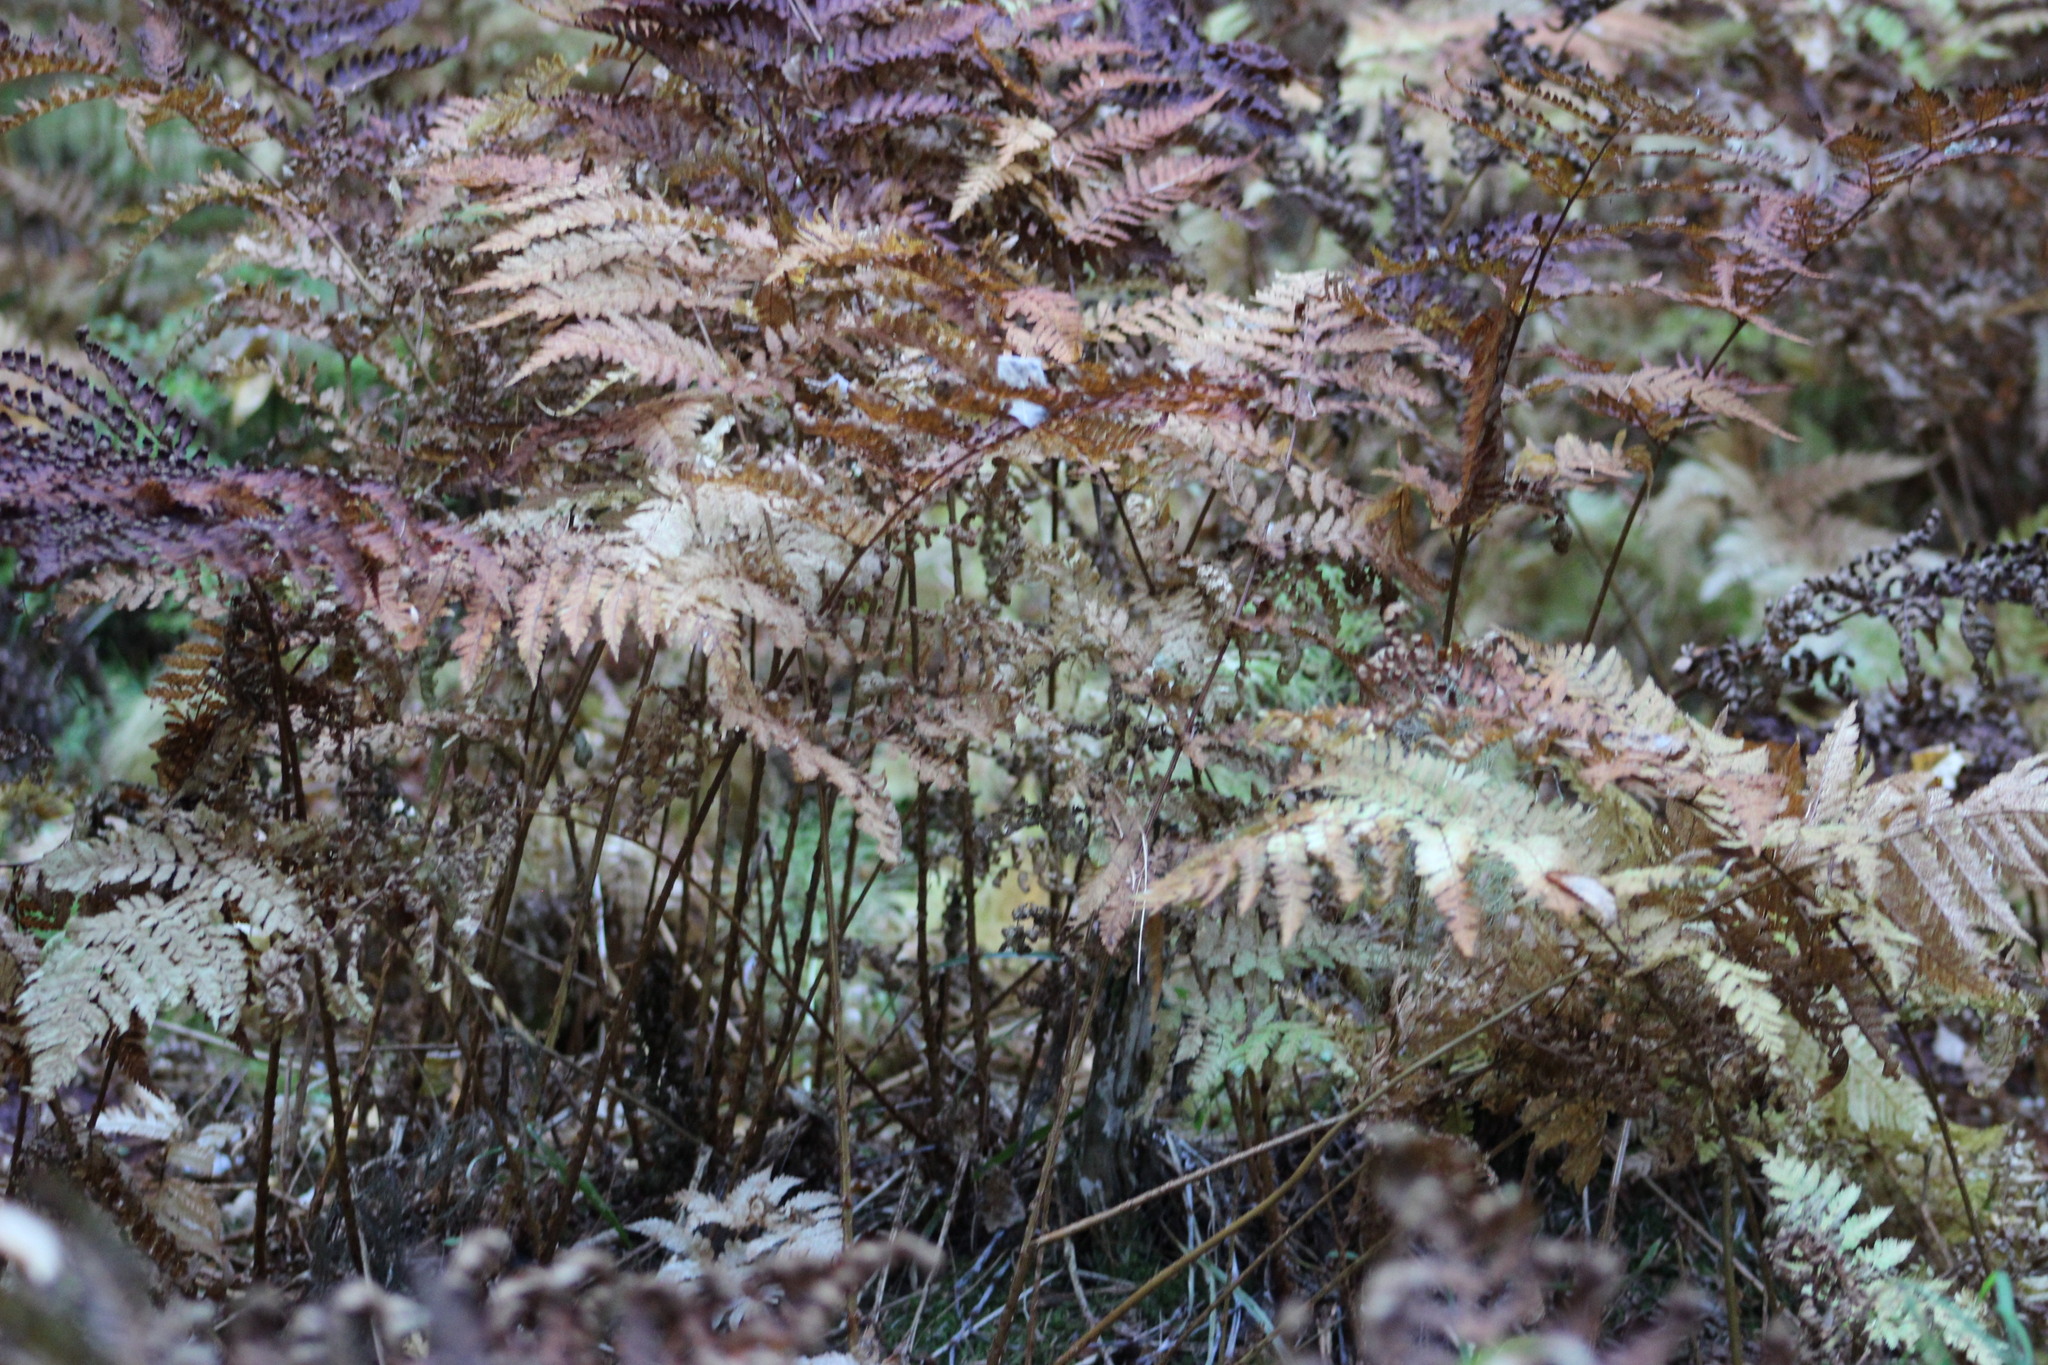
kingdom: Plantae
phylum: Tracheophyta
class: Polypodiopsida
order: Polypodiales
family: Dryopteridaceae
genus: Dryopteris
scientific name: Dryopteris expansa
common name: Northern buckler fern
